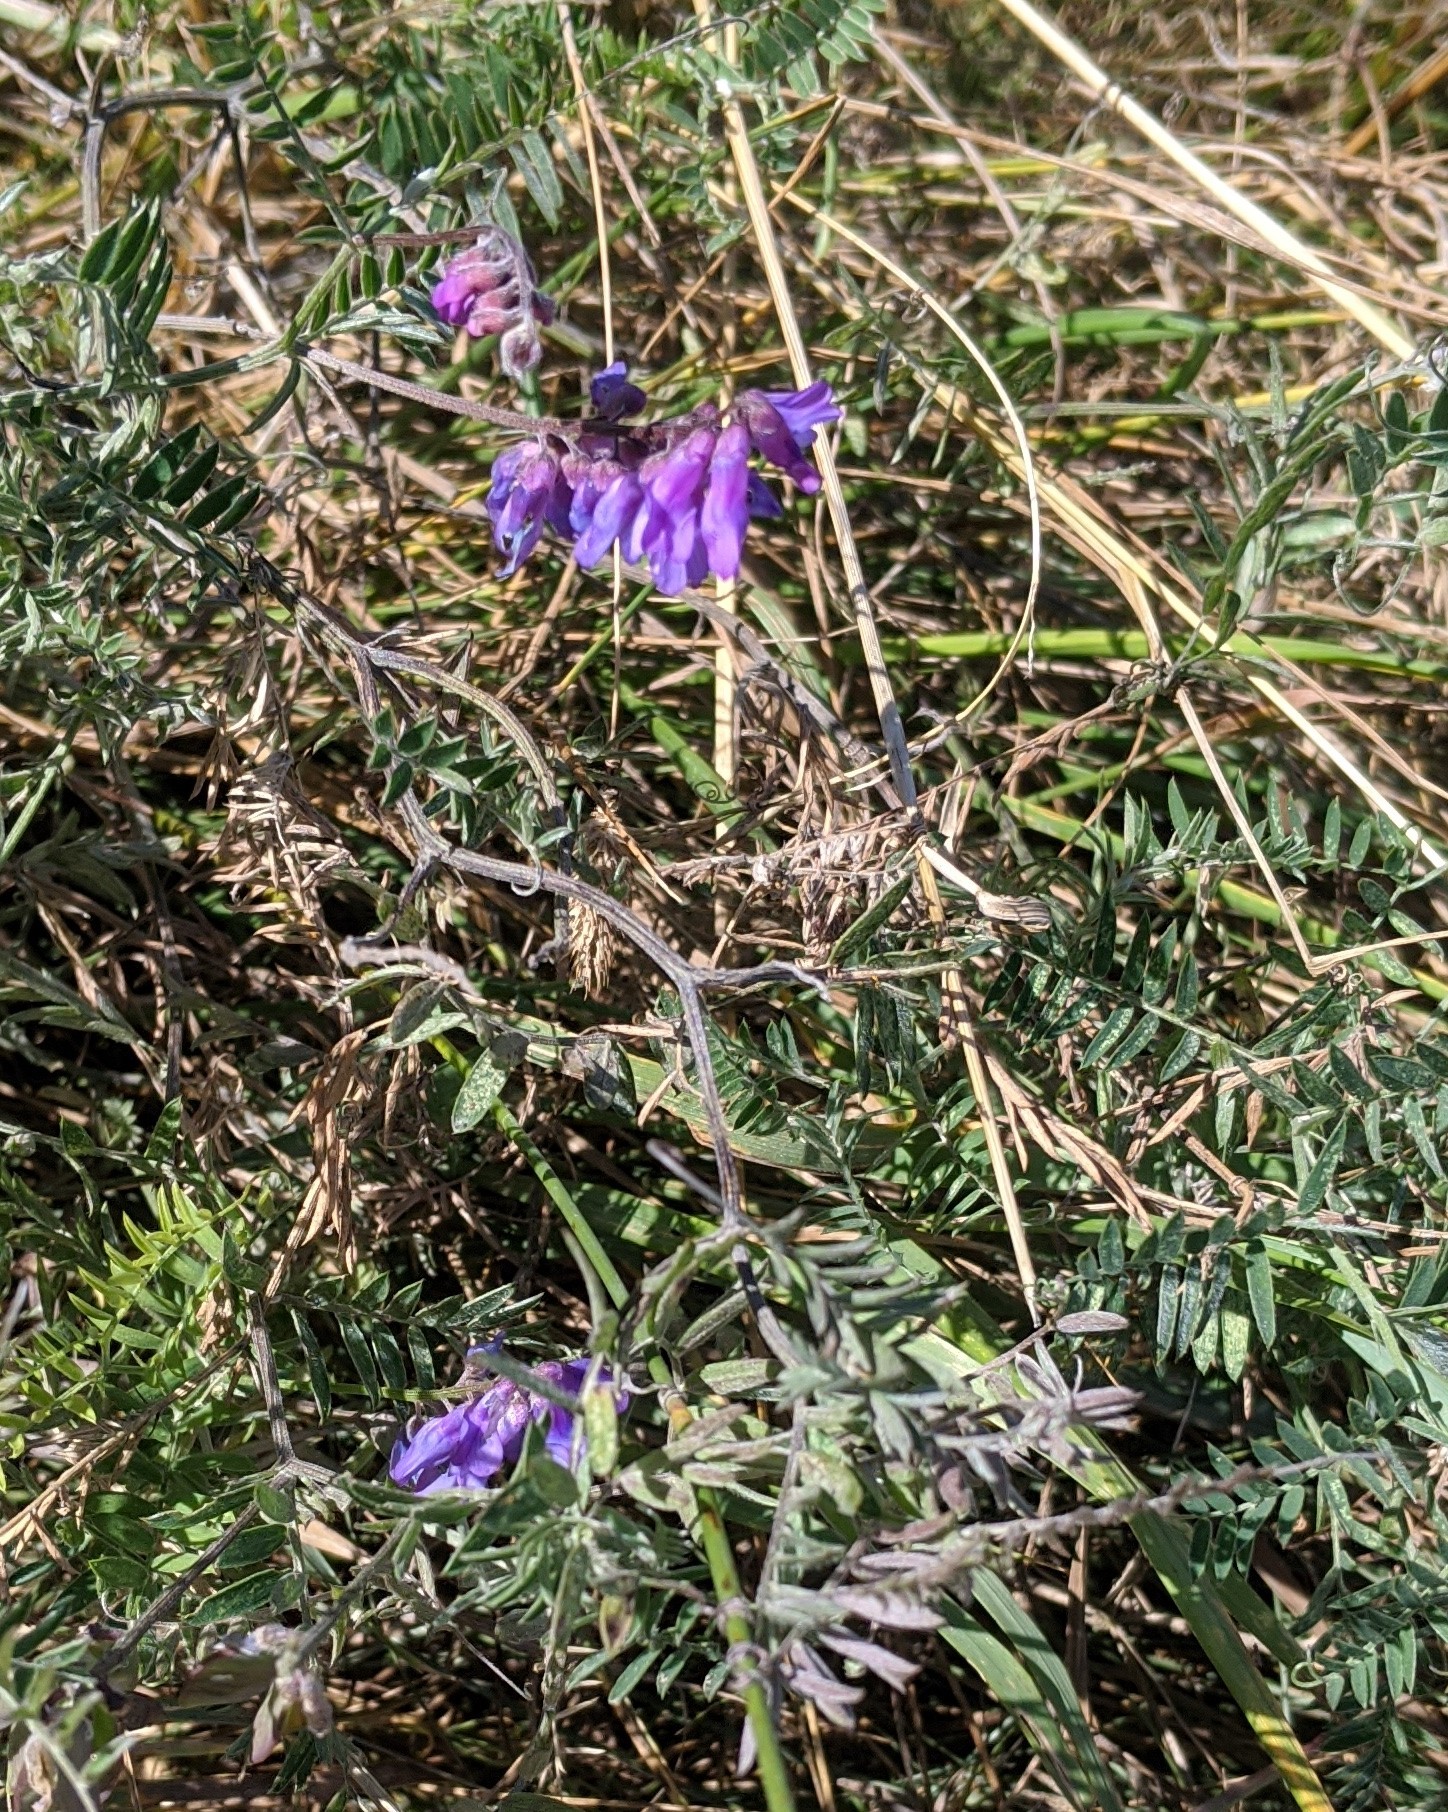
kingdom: Plantae
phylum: Tracheophyta
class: Magnoliopsida
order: Fabales
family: Fabaceae
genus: Vicia
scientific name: Vicia cracca
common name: Bird vetch
